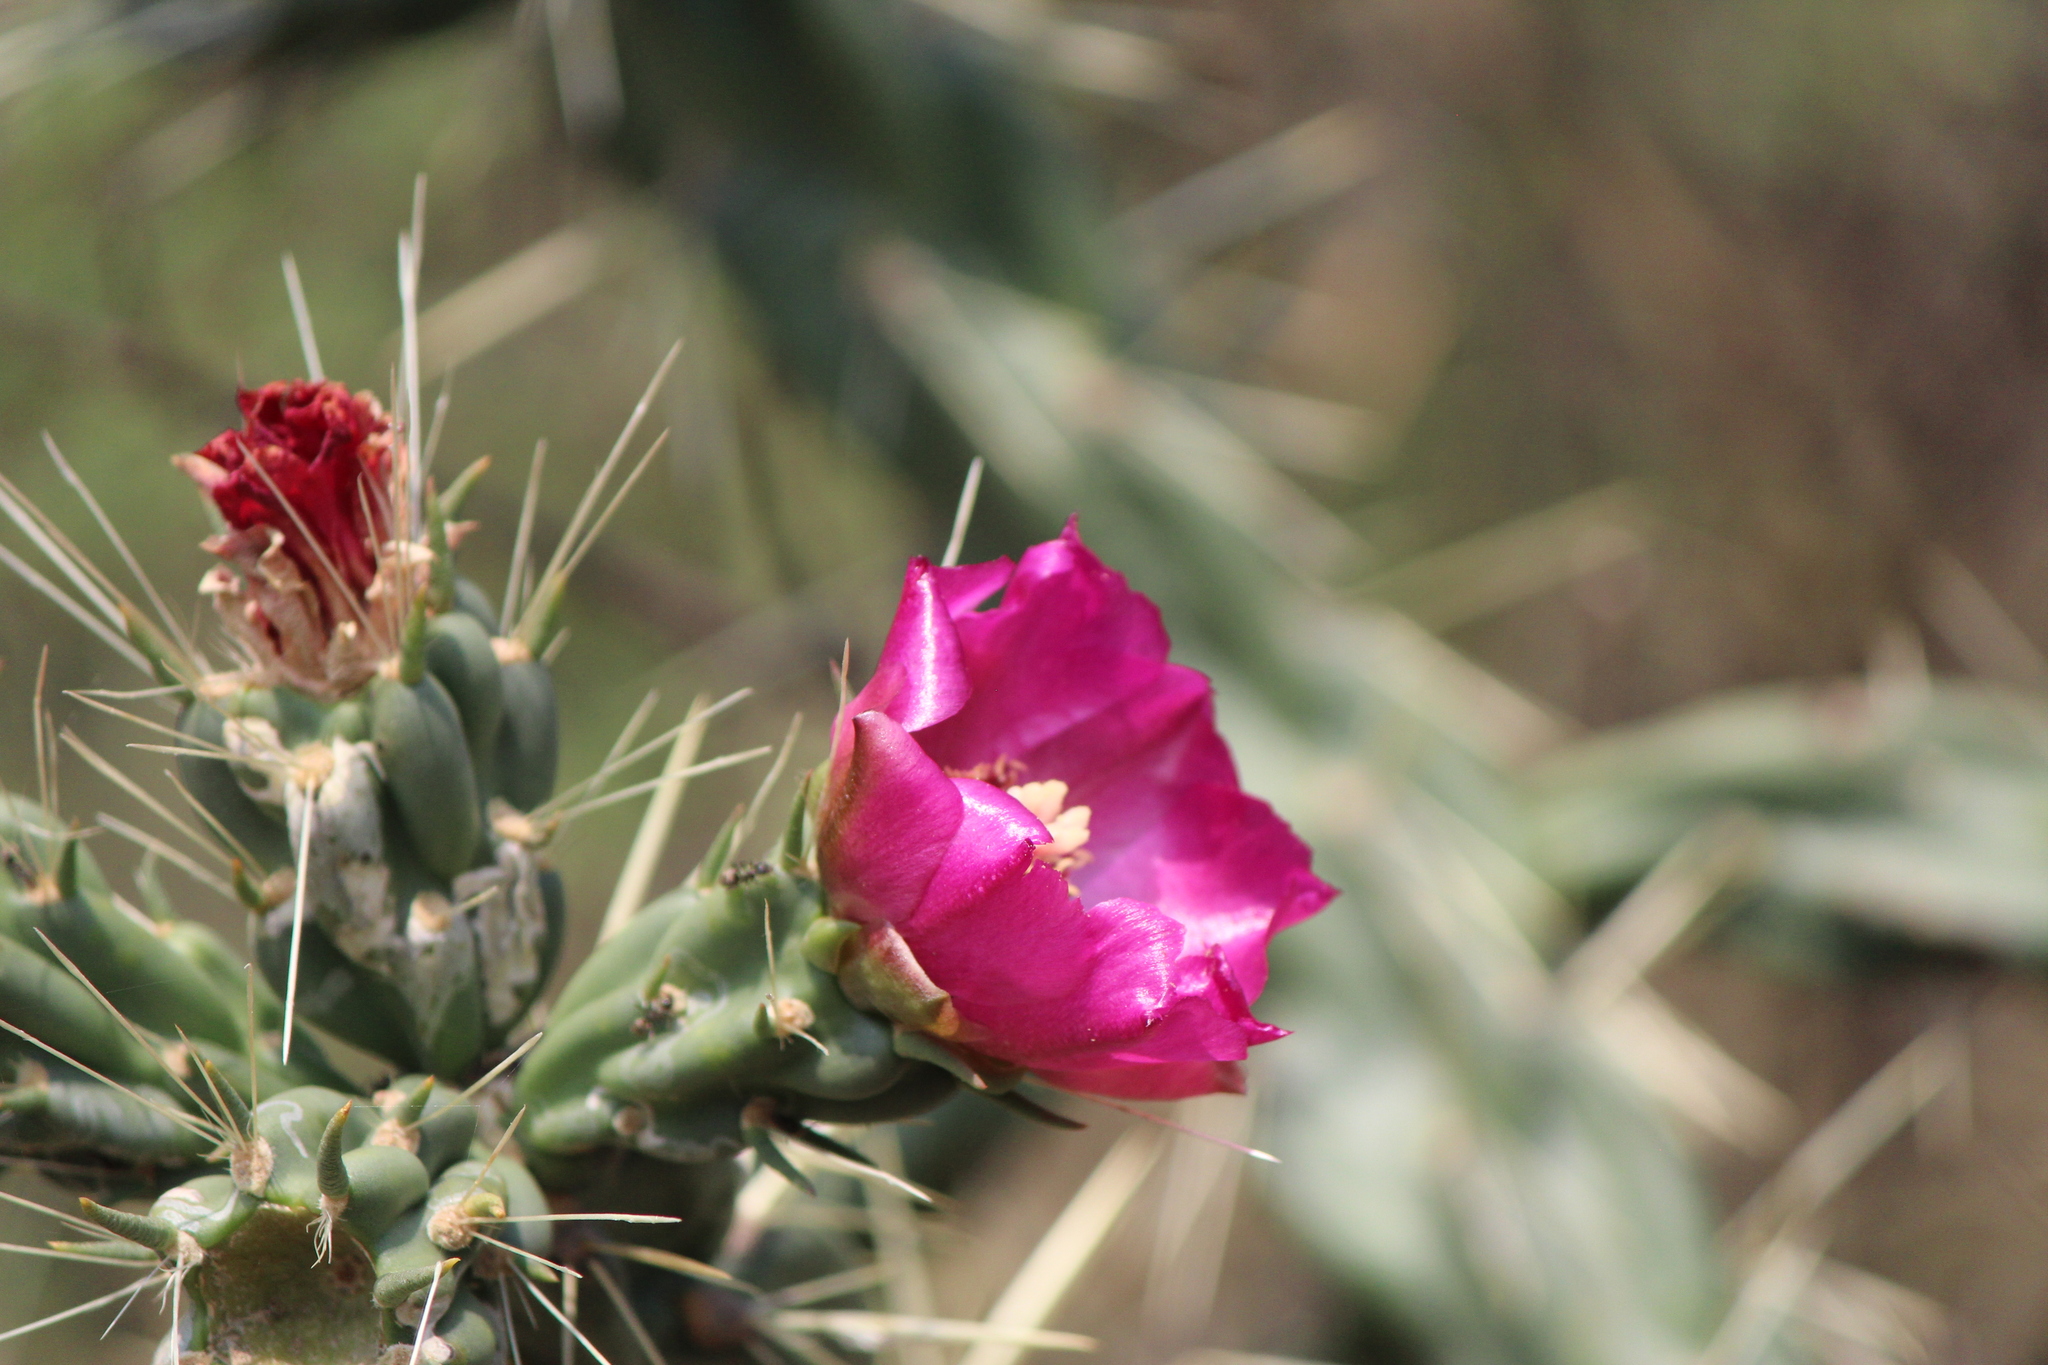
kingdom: Plantae
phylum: Tracheophyta
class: Magnoliopsida
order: Caryophyllales
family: Cactaceae
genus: Cylindropuntia
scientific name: Cylindropuntia imbricata
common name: Candelabrum cactus
